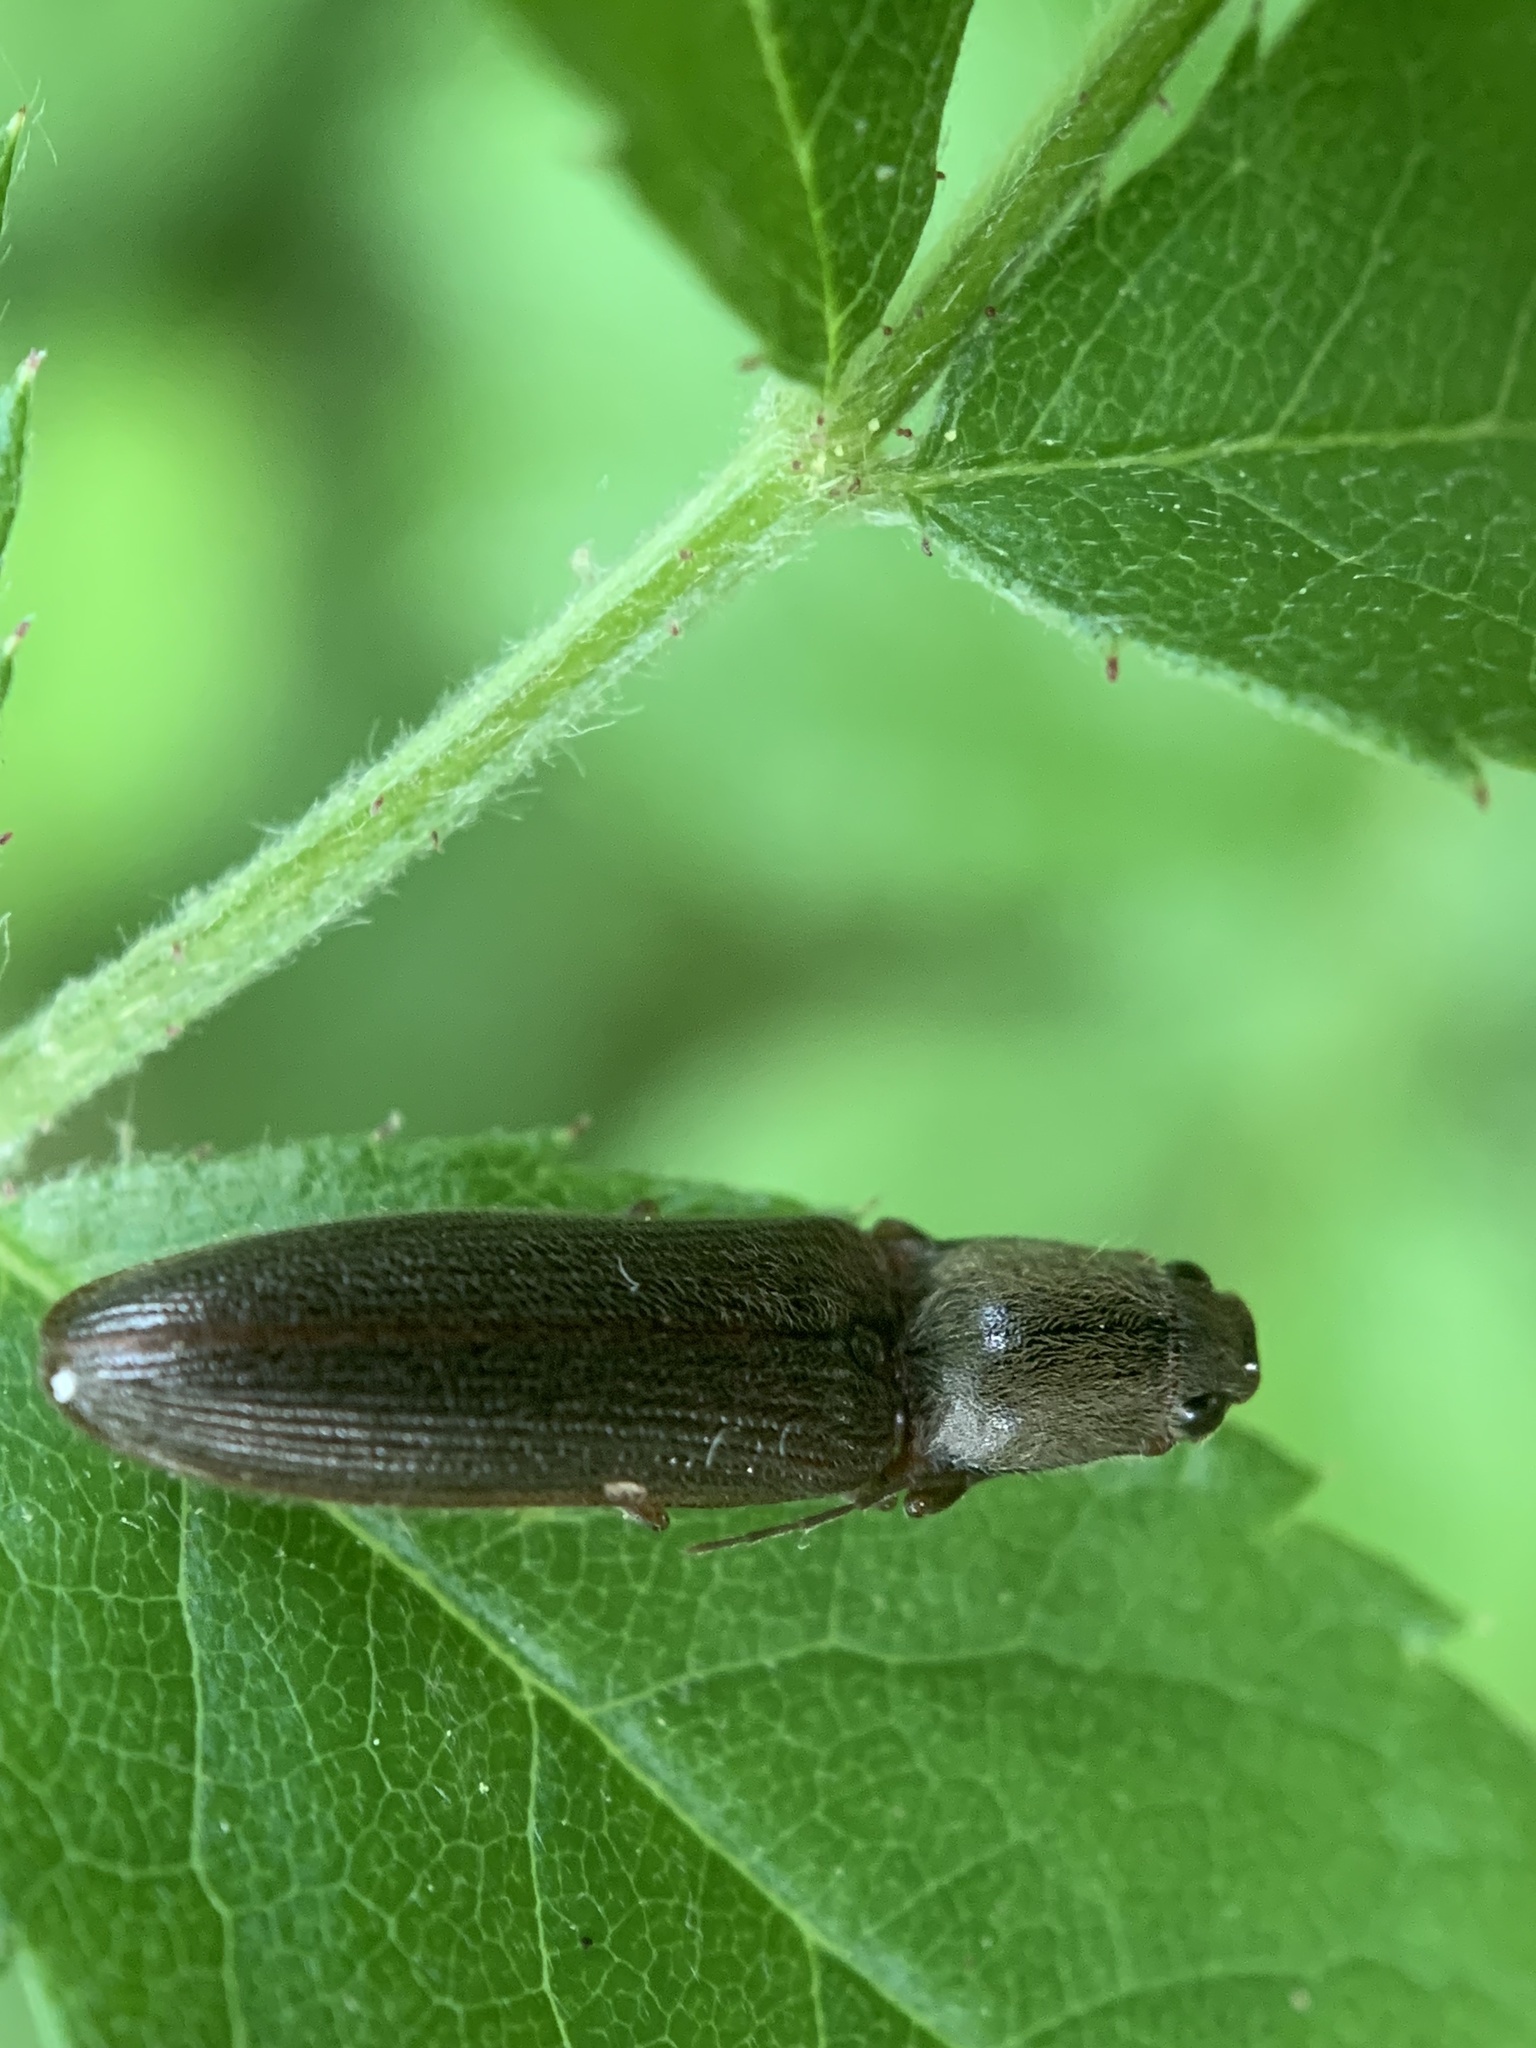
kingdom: Animalia
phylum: Arthropoda
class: Insecta
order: Coleoptera
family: Elateridae
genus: Athous
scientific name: Athous brightwelli
